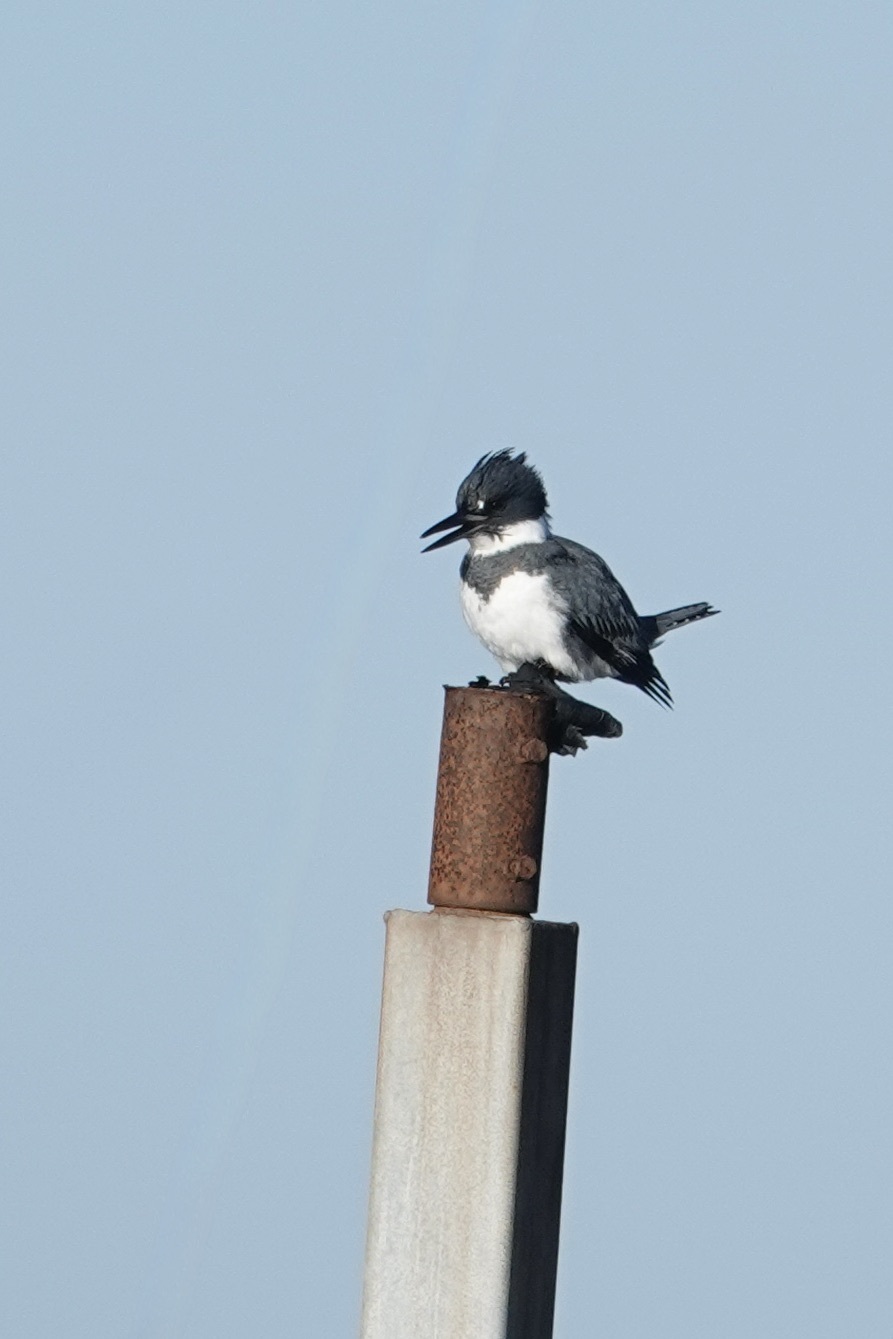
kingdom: Animalia
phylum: Chordata
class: Aves
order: Coraciiformes
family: Alcedinidae
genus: Megaceryle
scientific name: Megaceryle alcyon
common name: Belted kingfisher
